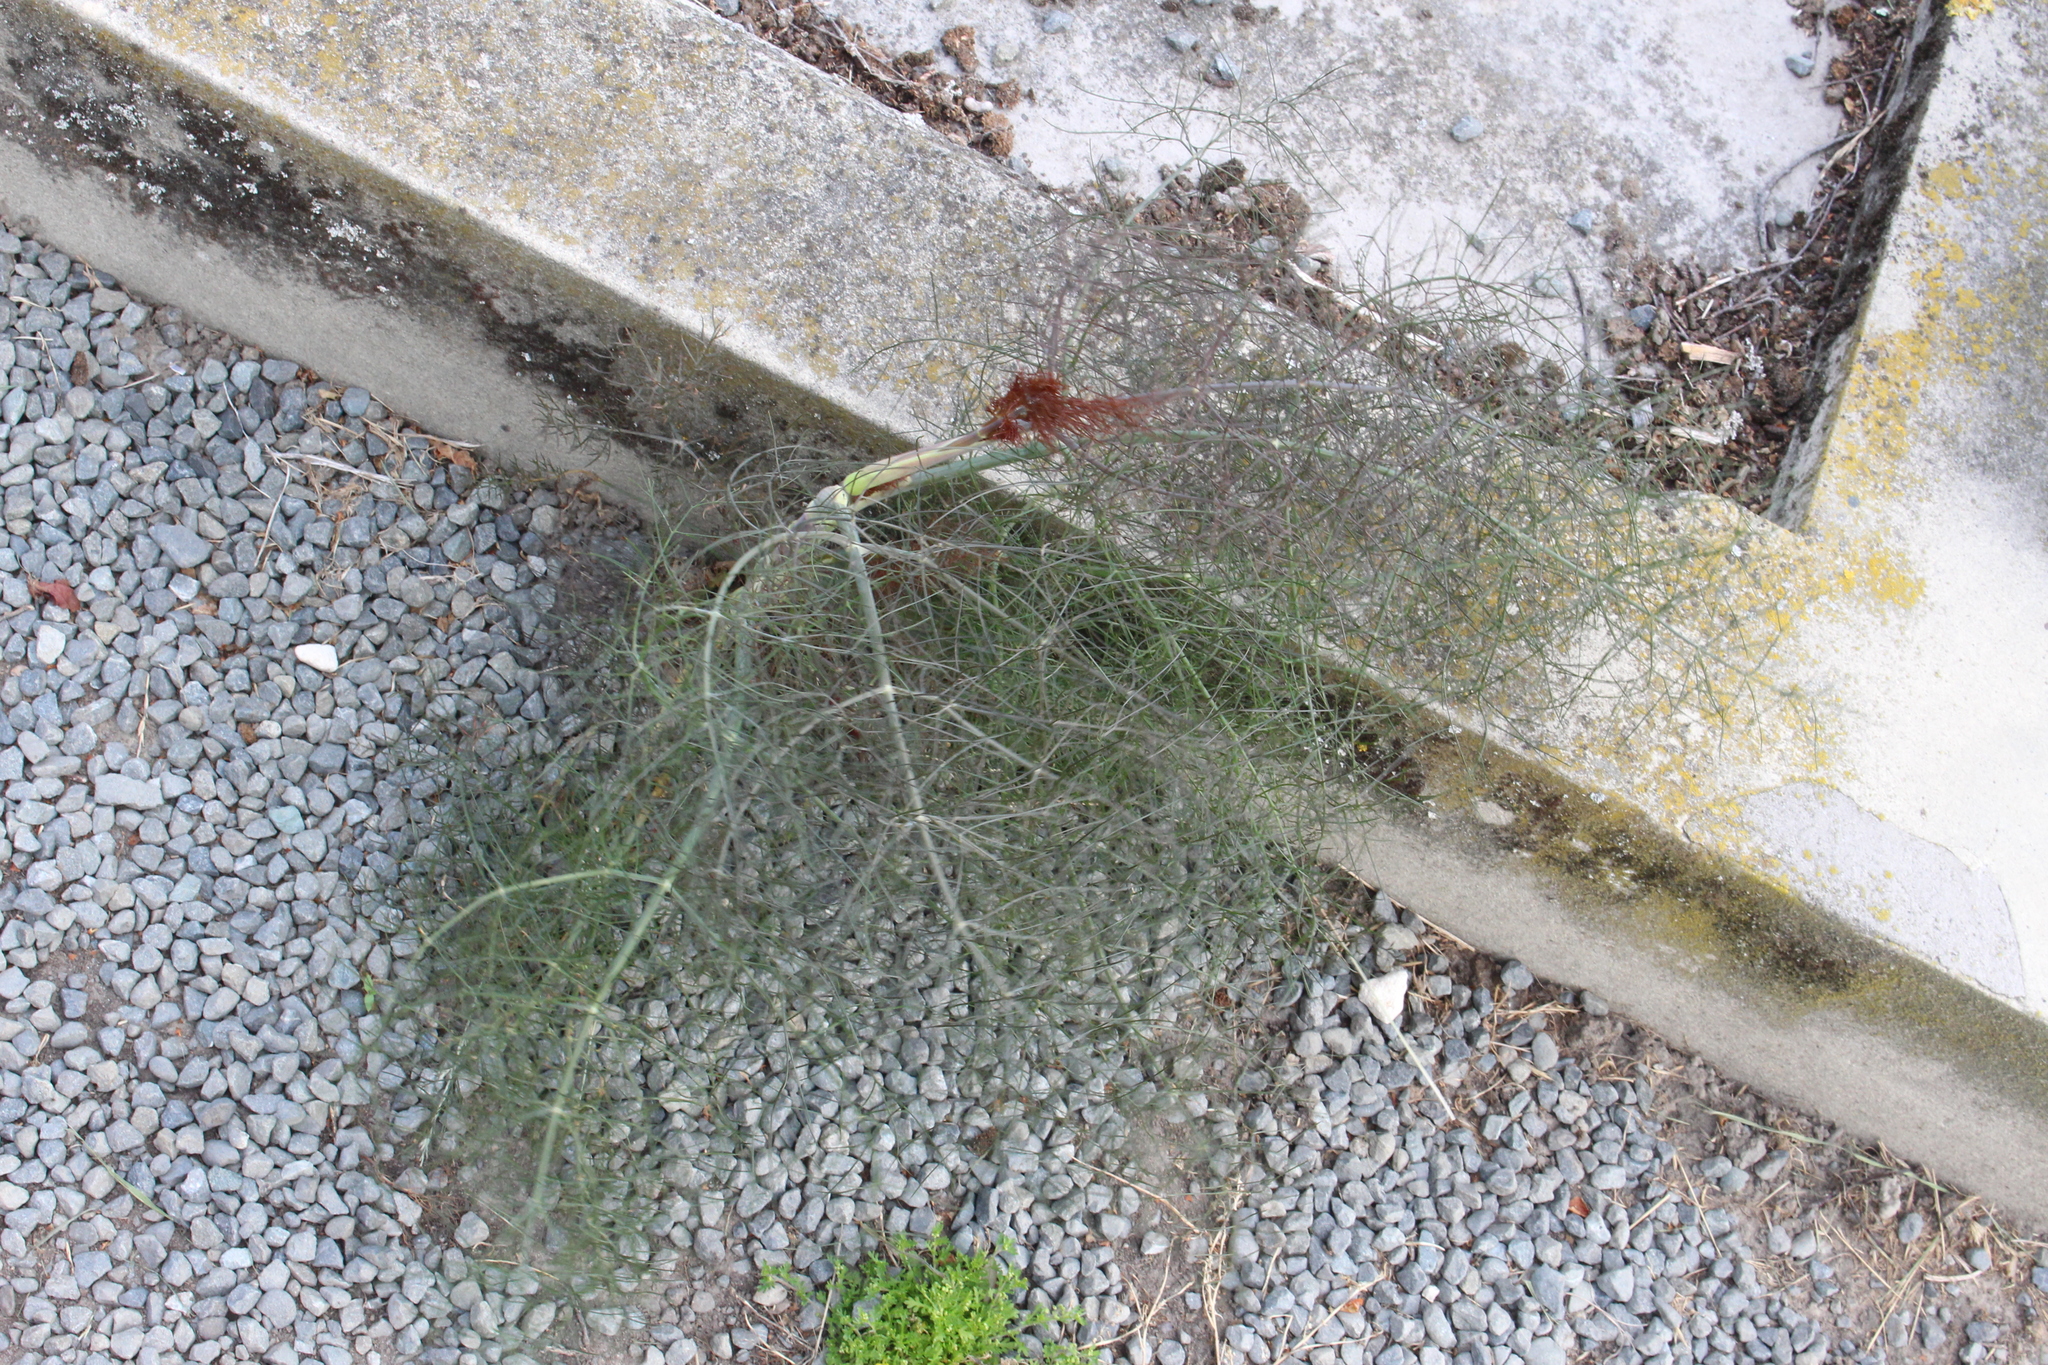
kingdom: Plantae
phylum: Tracheophyta
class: Magnoliopsida
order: Apiales
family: Apiaceae
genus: Foeniculum
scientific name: Foeniculum vulgare
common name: Fennel
